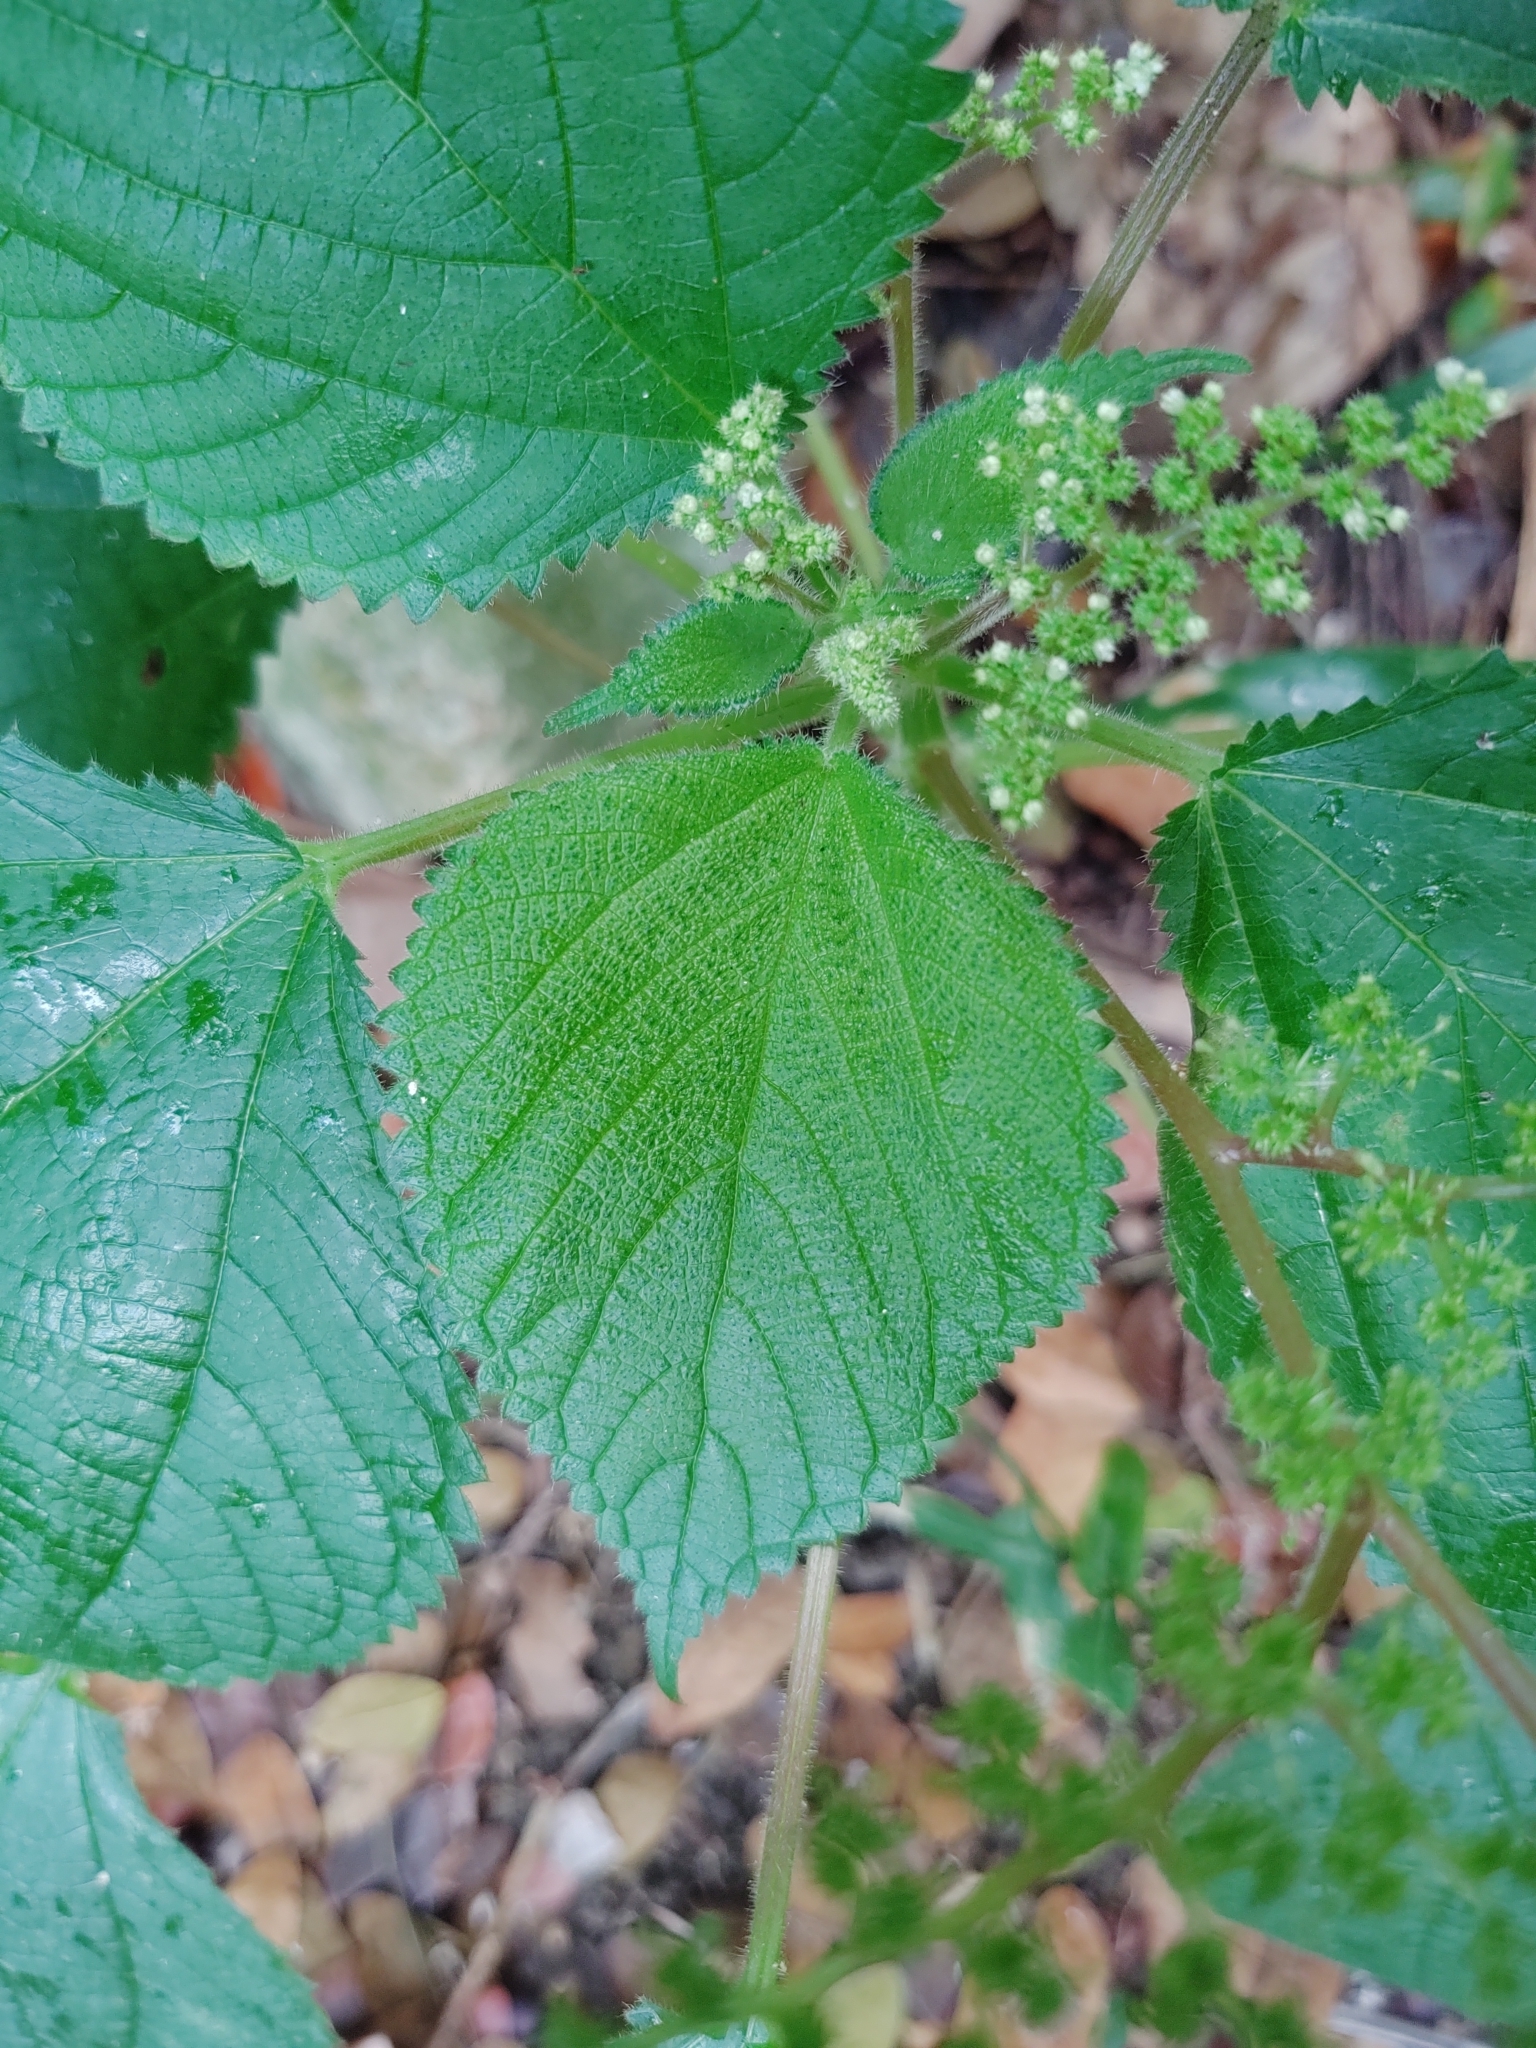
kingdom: Plantae
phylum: Tracheophyta
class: Magnoliopsida
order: Rosales
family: Urticaceae
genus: Laportea
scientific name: Laportea aestuans
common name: West indian woodnettle
